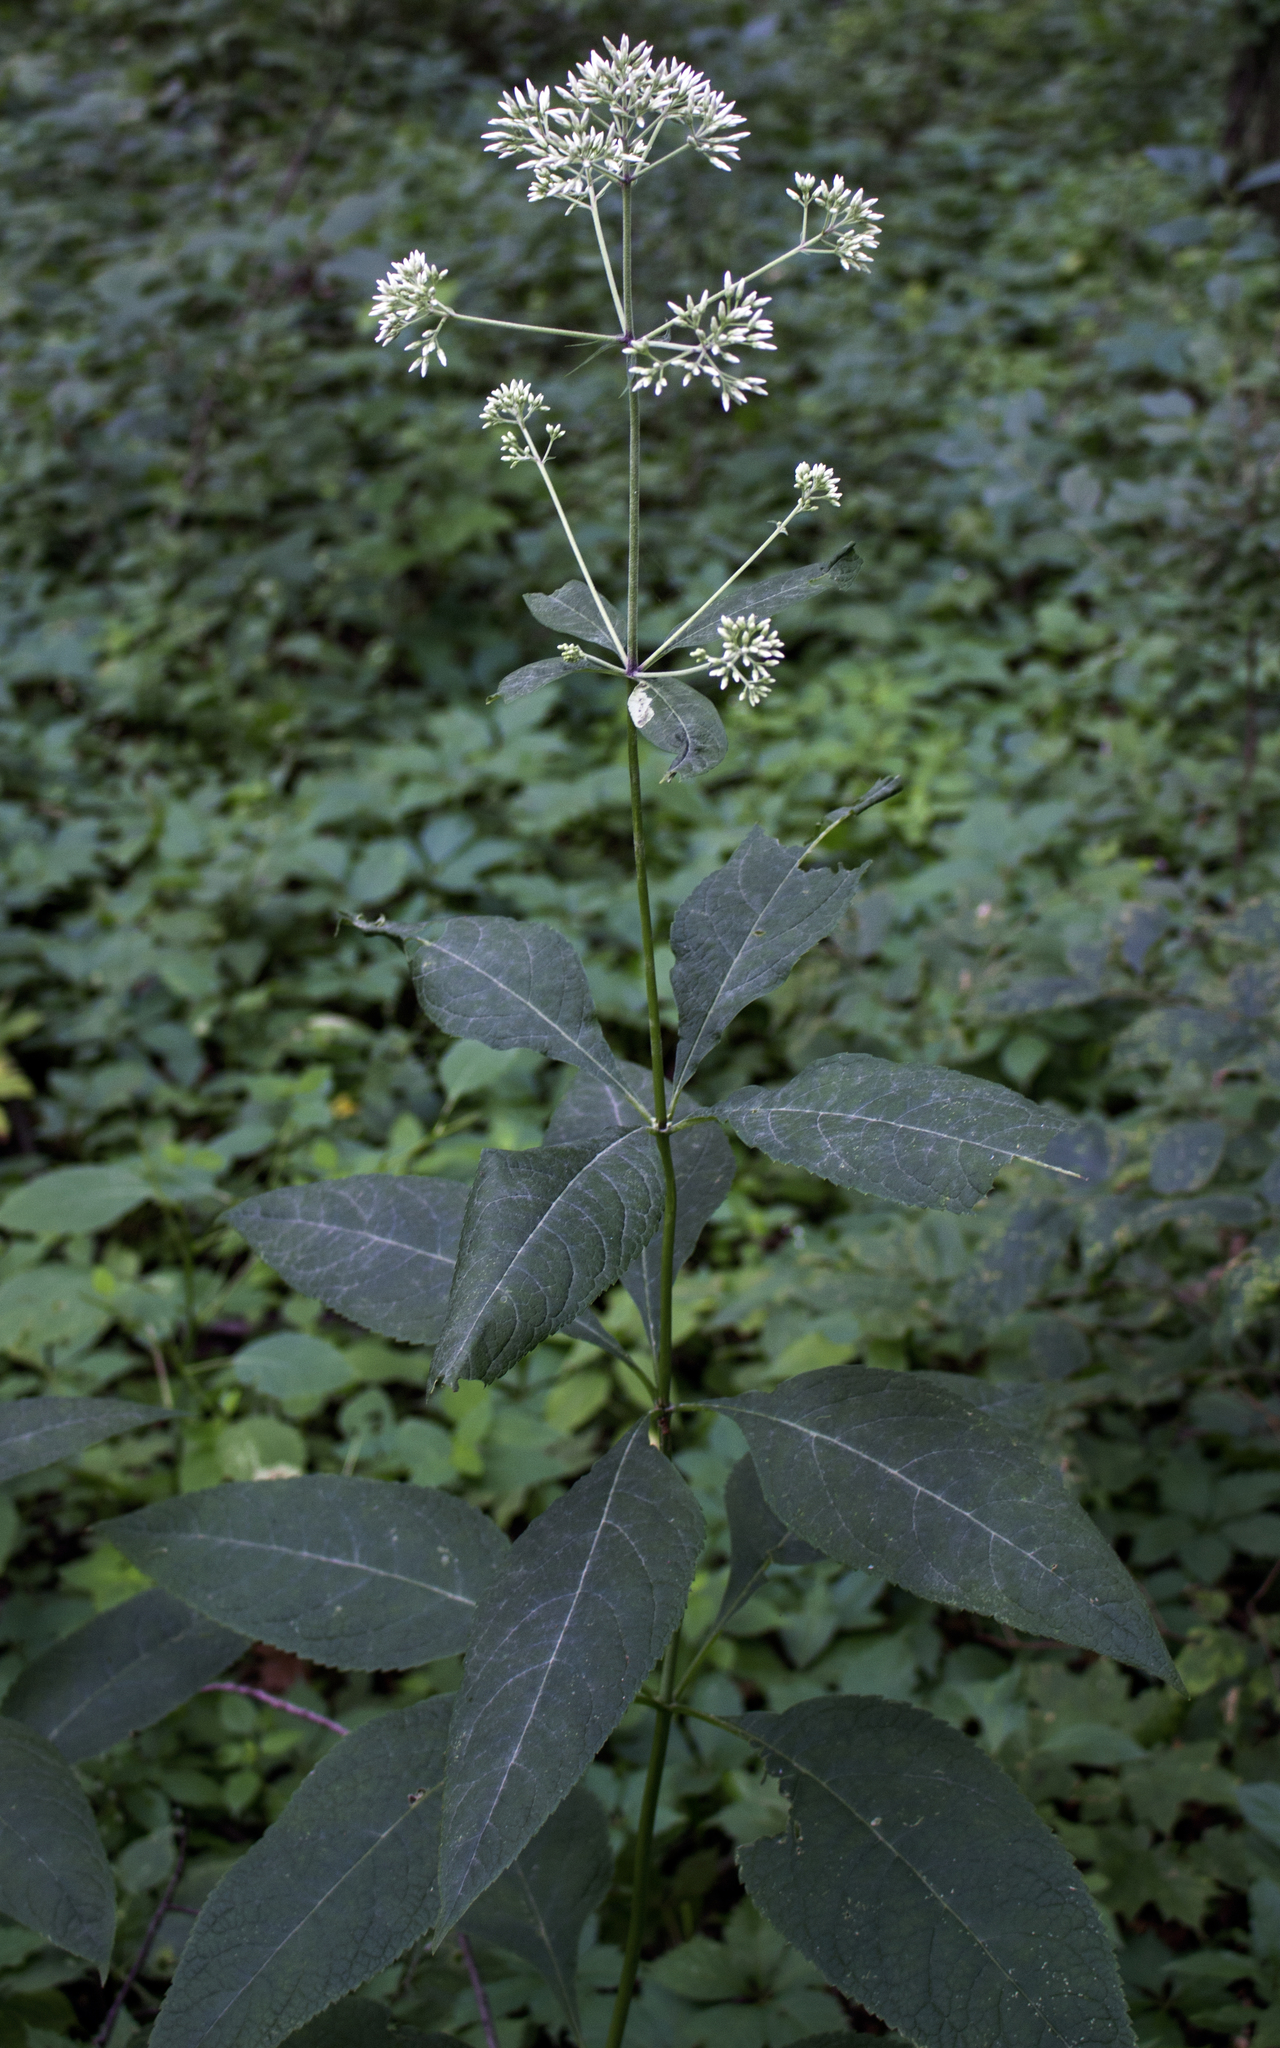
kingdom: Plantae
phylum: Tracheophyta
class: Magnoliopsida
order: Asterales
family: Asteraceae
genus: Eutrochium
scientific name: Eutrochium purpureum
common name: Gravelroot
